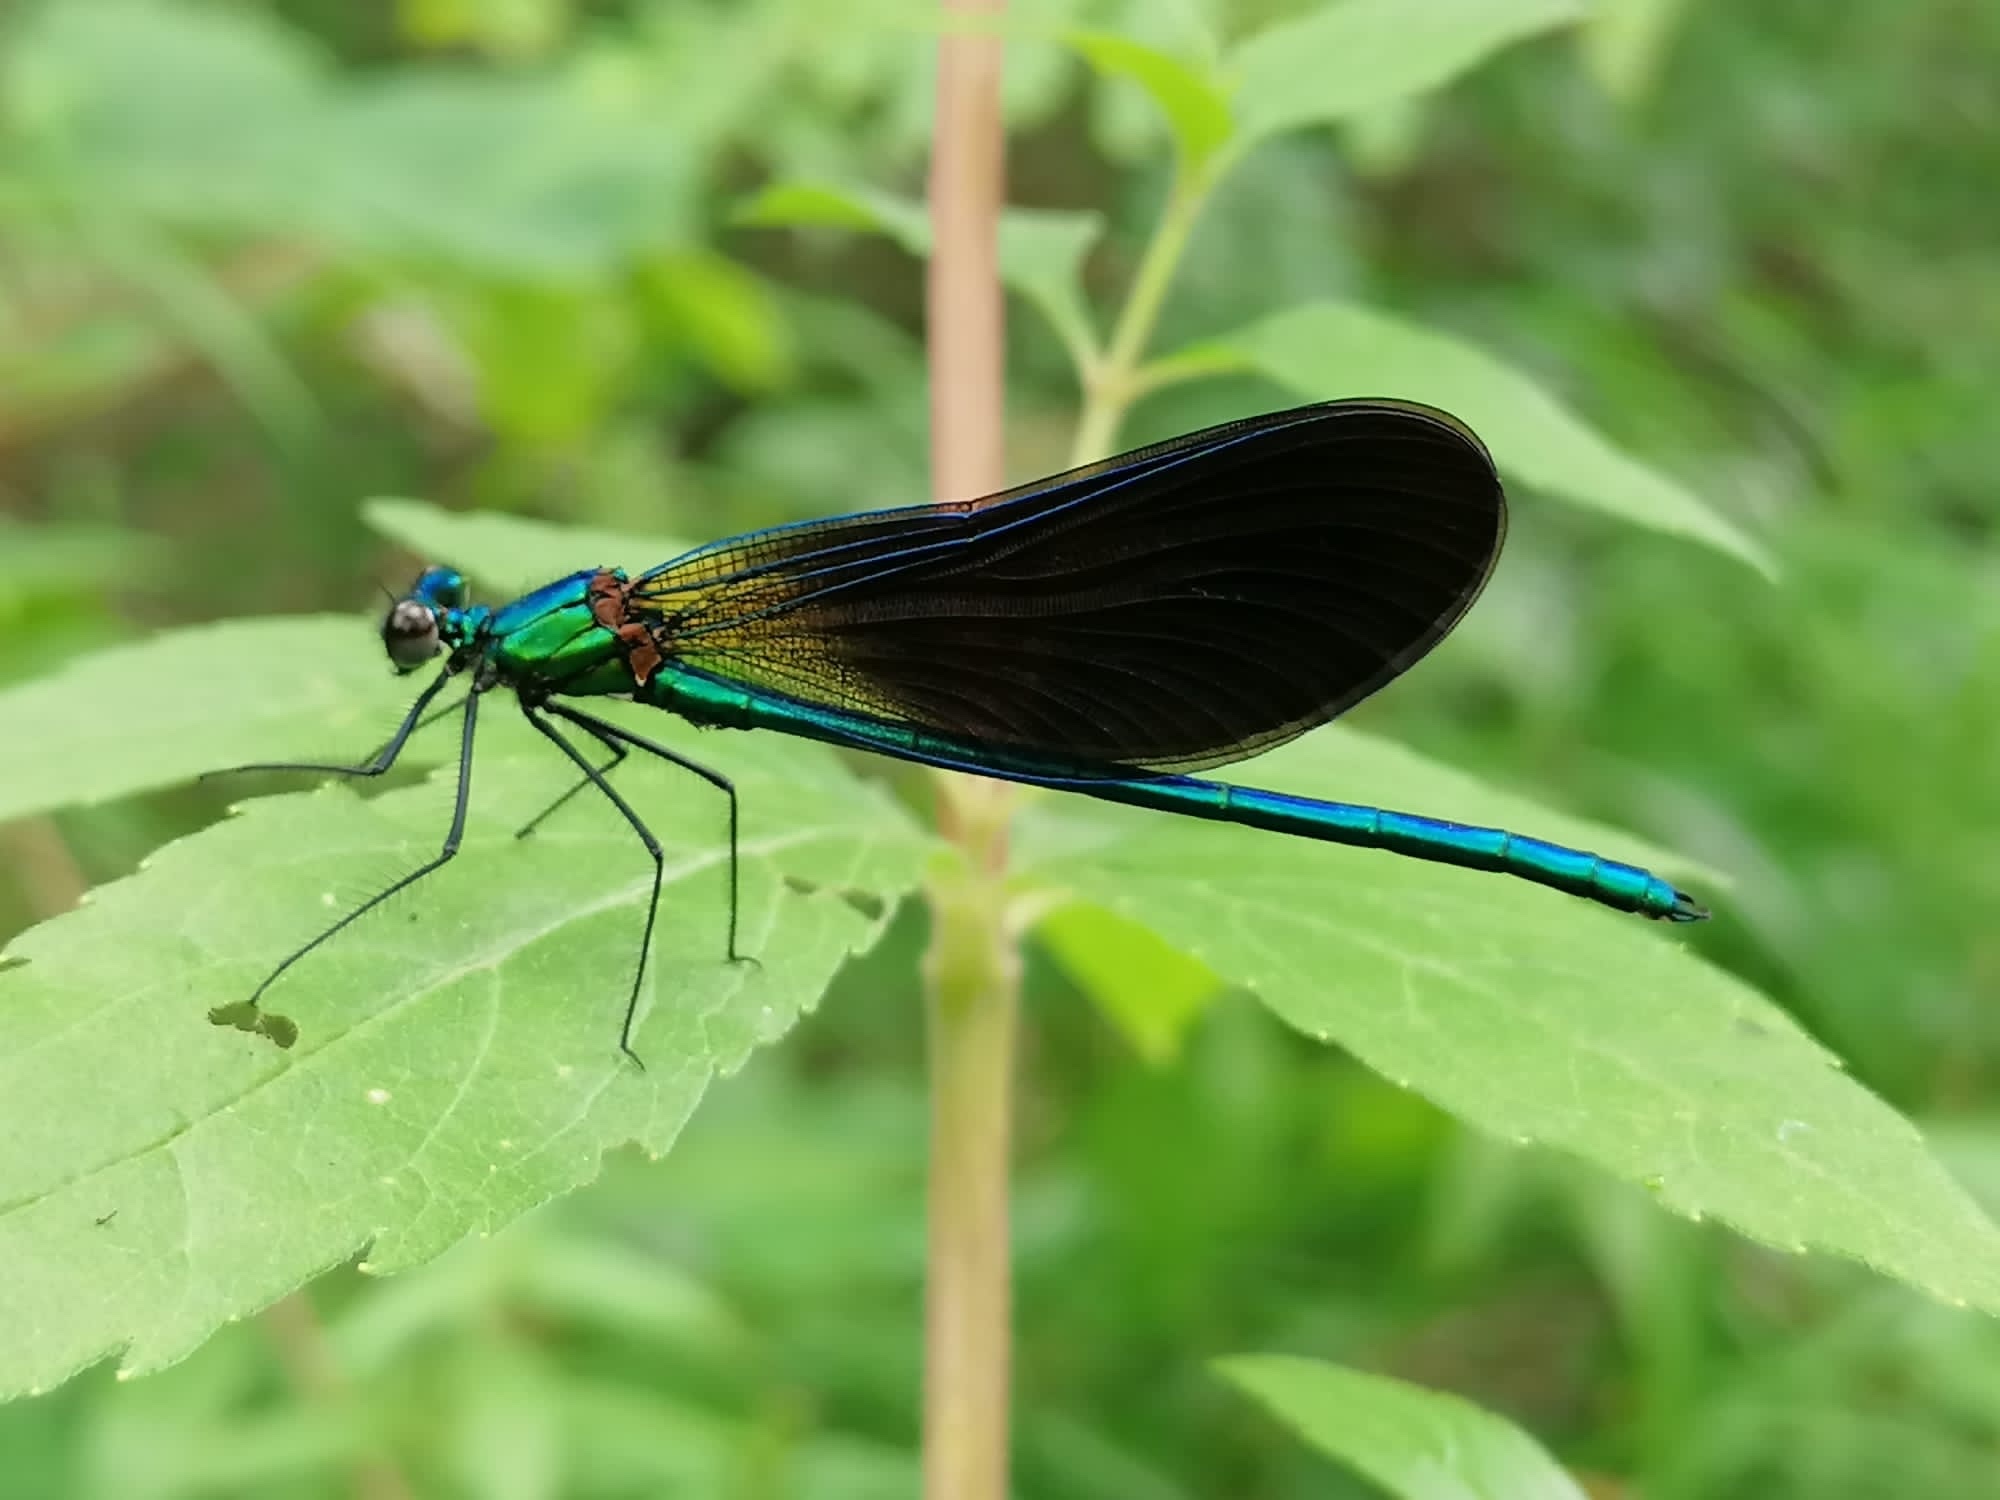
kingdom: Animalia
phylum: Arthropoda
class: Insecta
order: Odonata
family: Calopterygidae
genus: Calopteryx
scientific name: Calopteryx virgo
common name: Beautiful demoiselle
